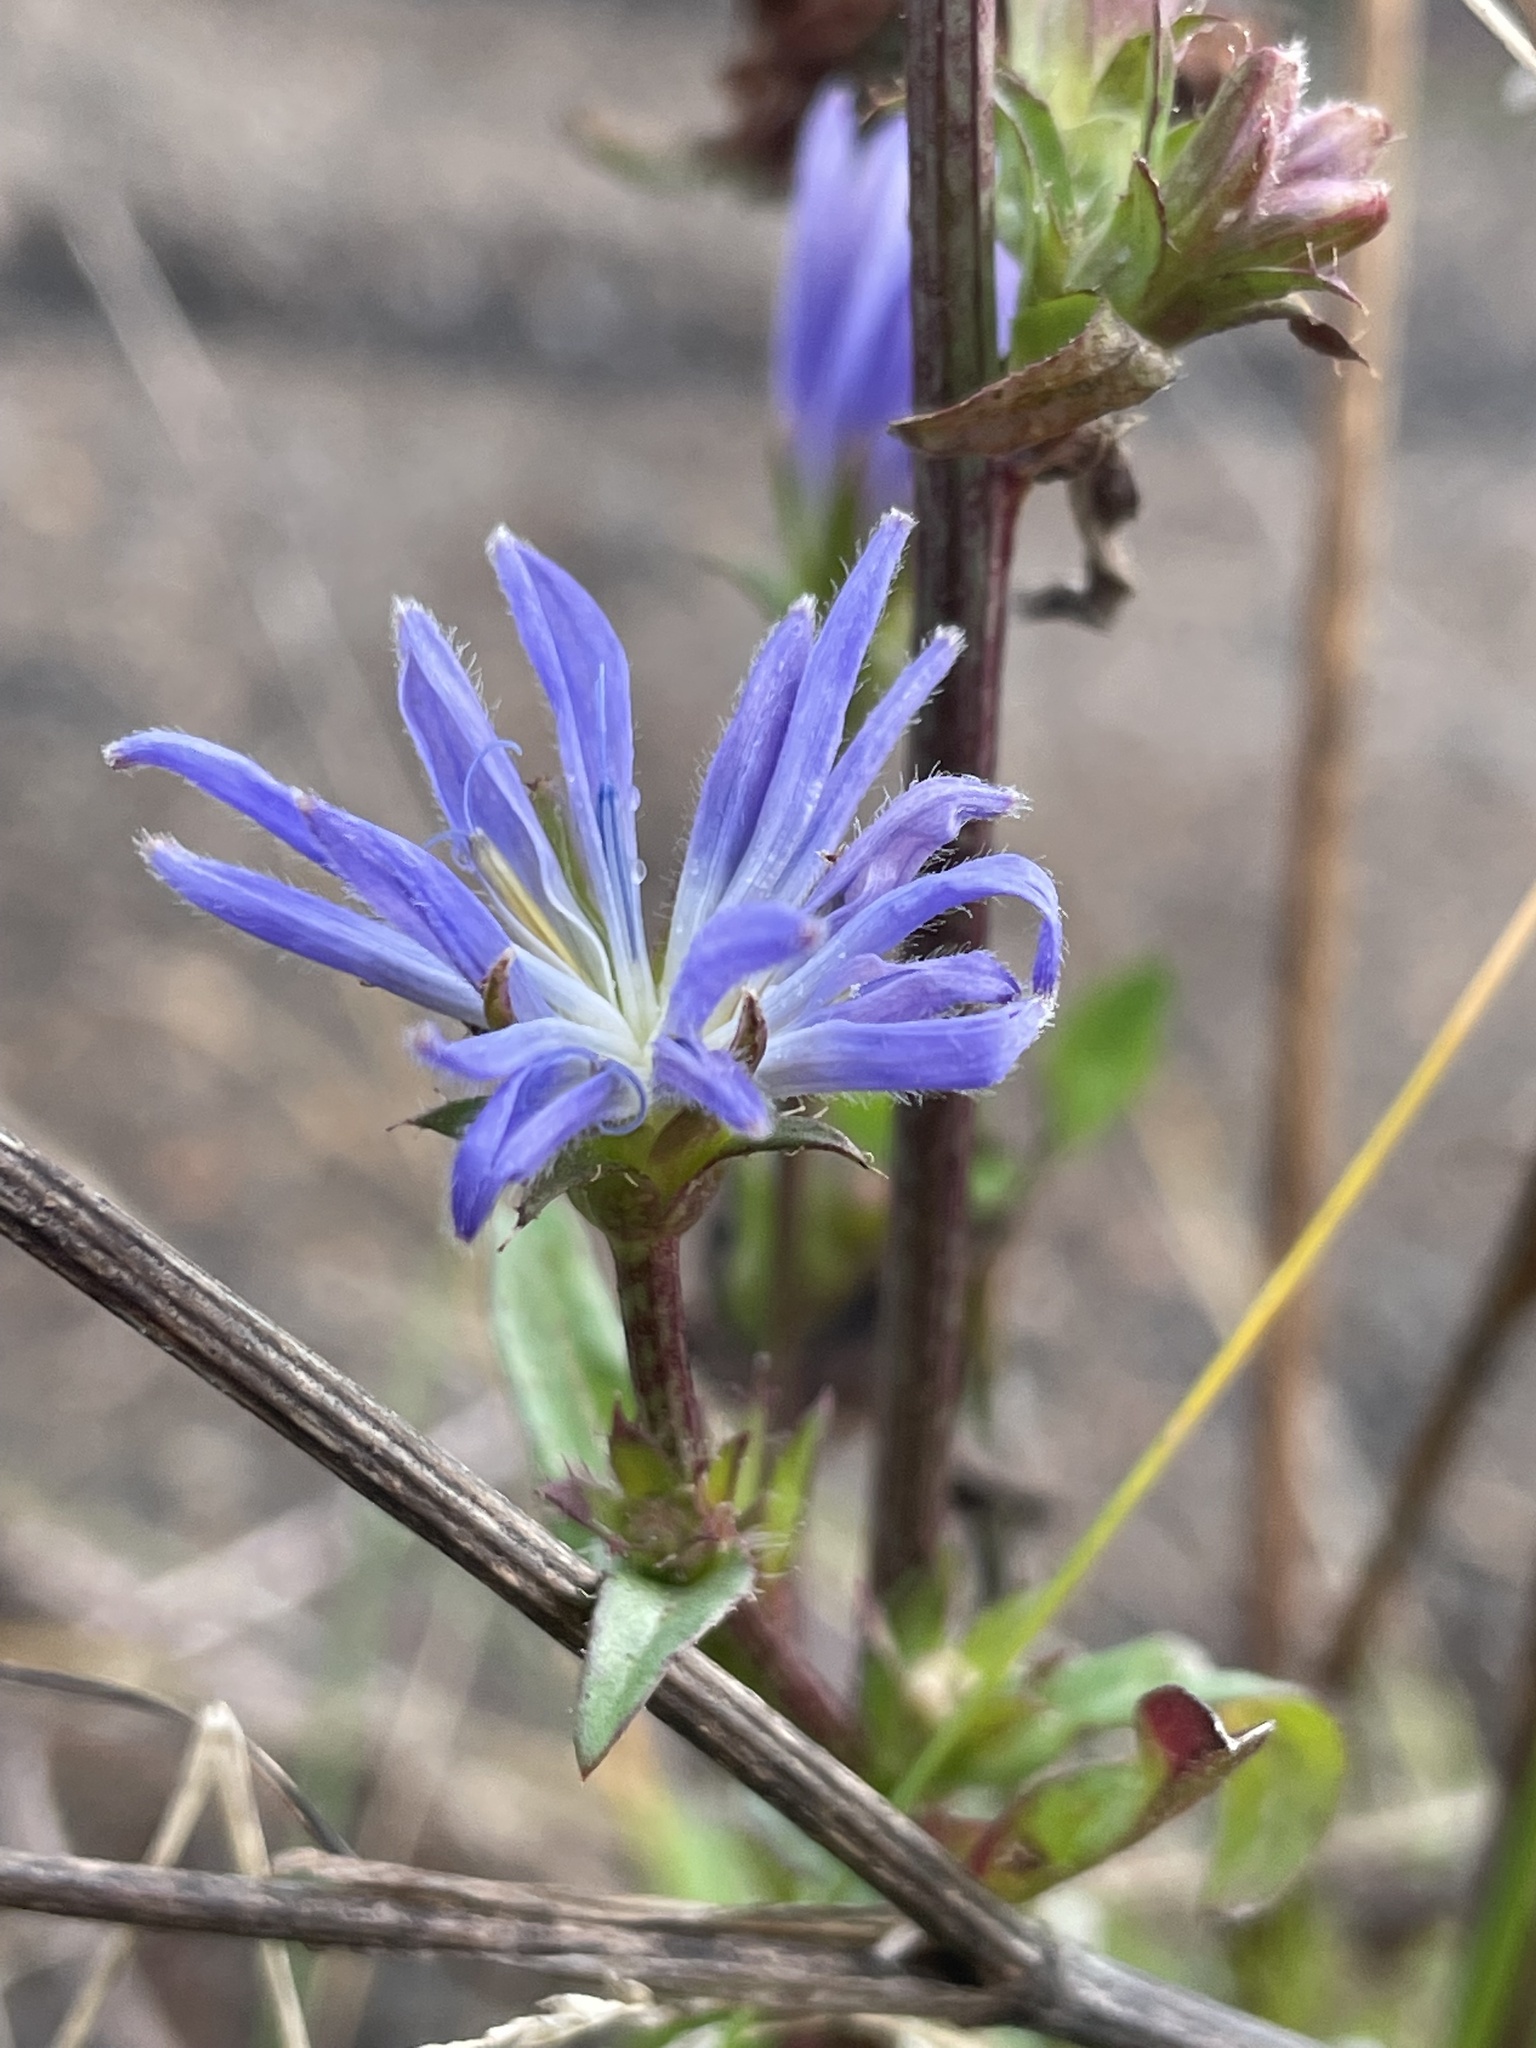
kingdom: Plantae
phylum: Tracheophyta
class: Magnoliopsida
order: Asterales
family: Asteraceae
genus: Cichorium
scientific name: Cichorium intybus
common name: Chicory
